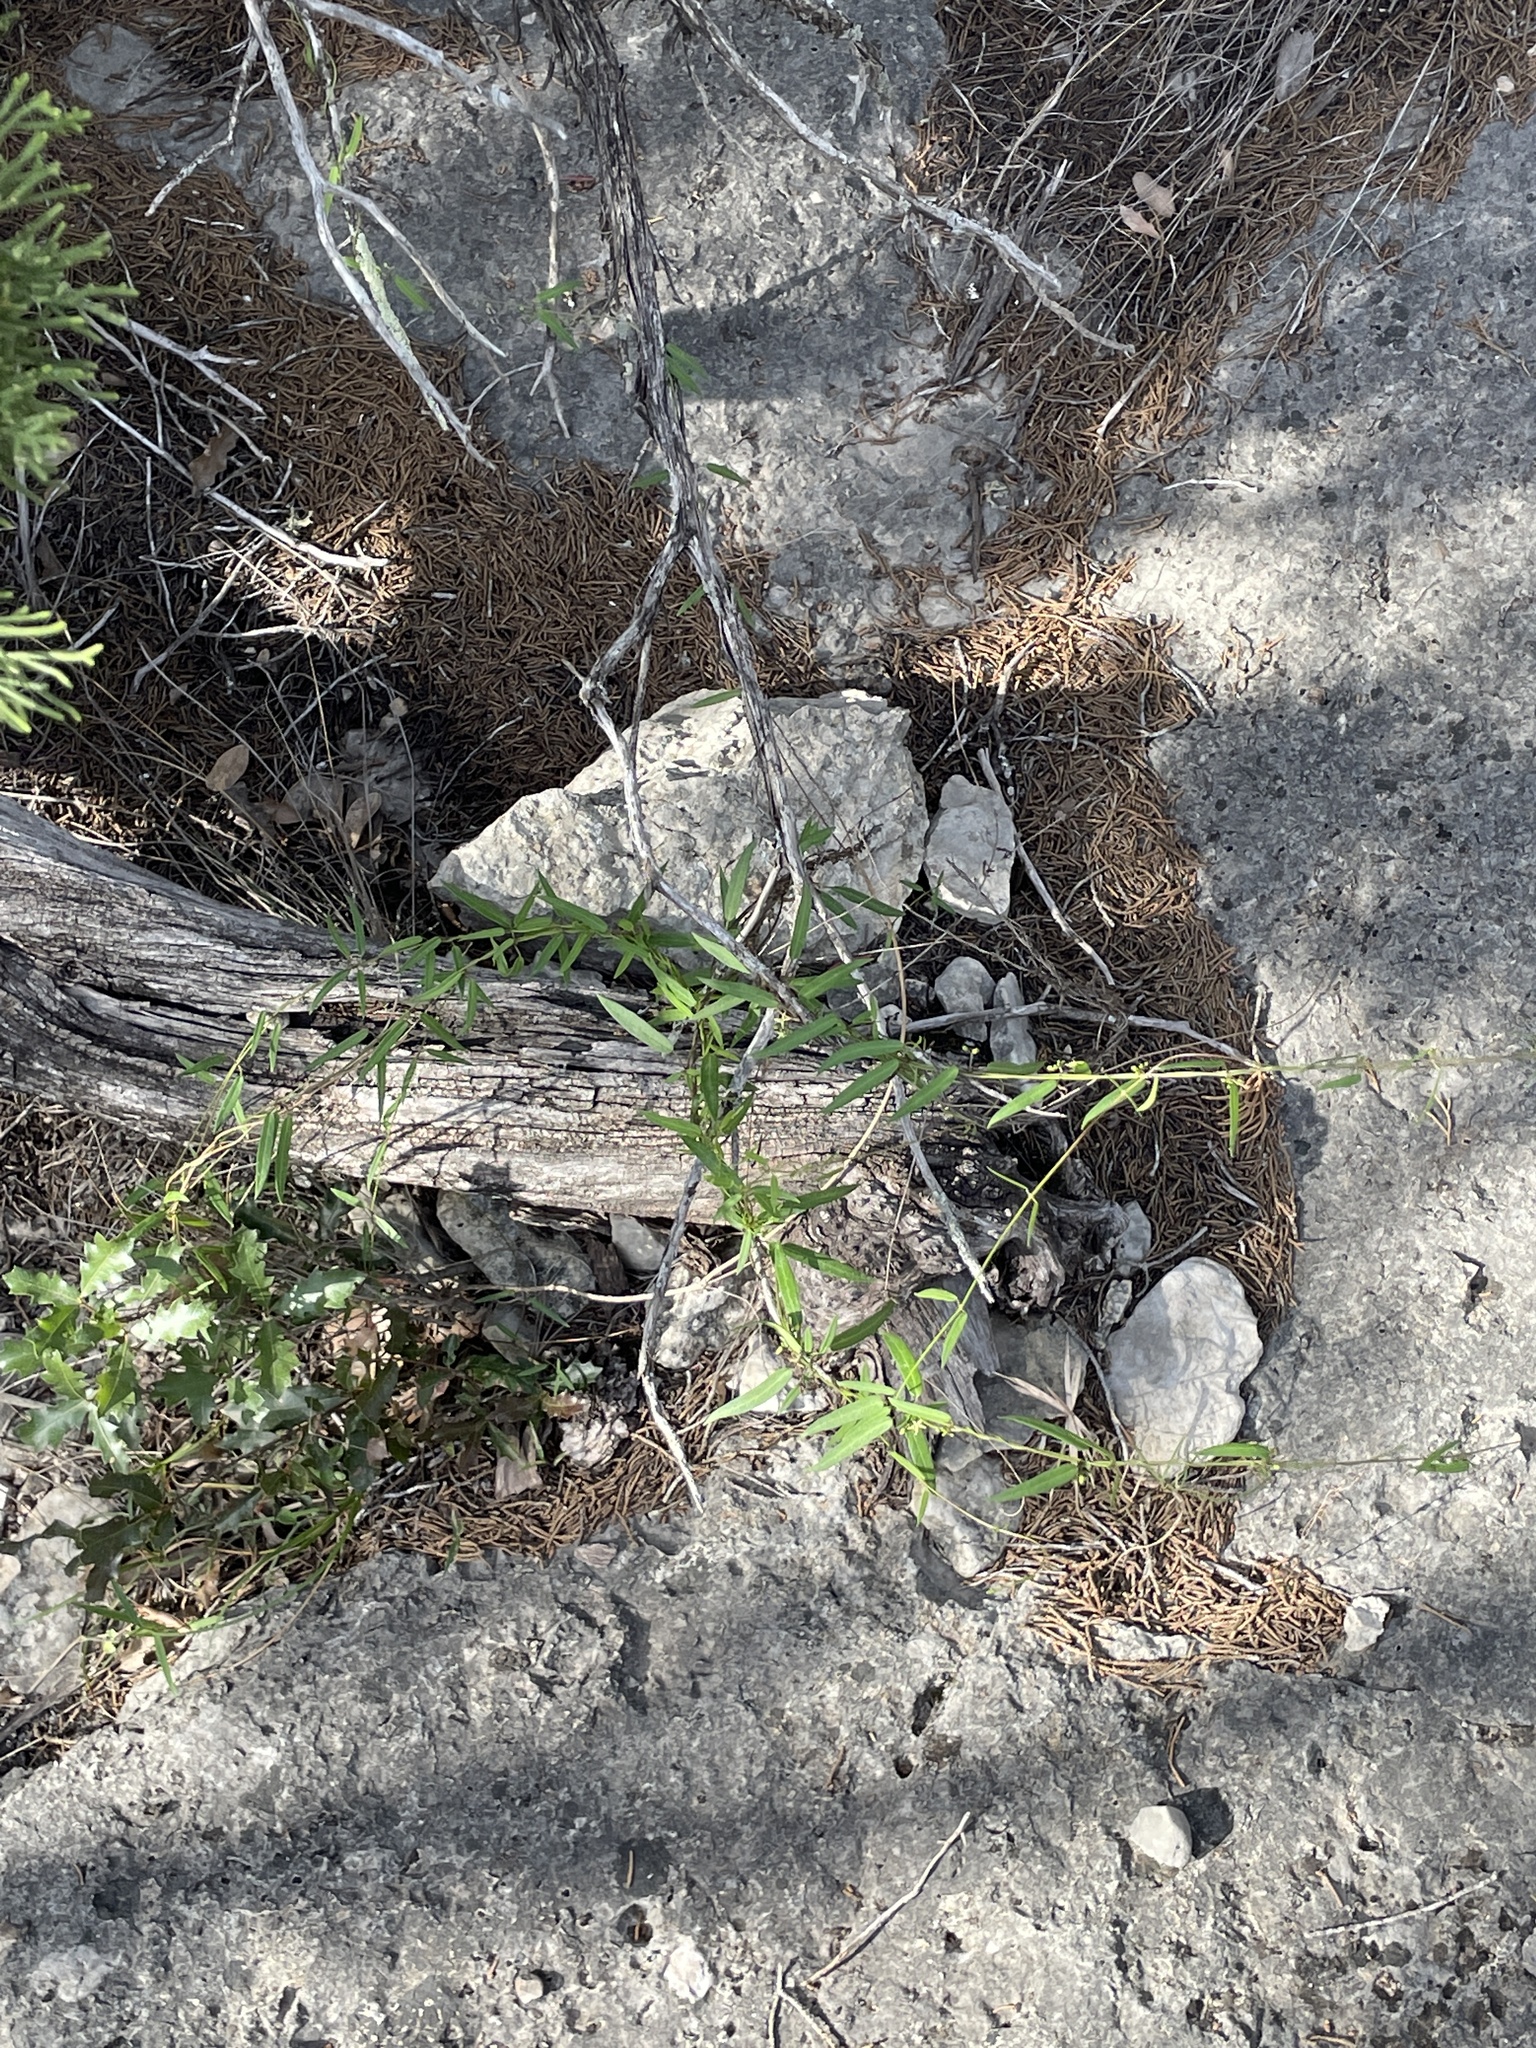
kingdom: Plantae
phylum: Tracheophyta
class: Magnoliopsida
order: Gentianales
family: Apocynaceae
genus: Metastelma
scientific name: Metastelma palmeri
